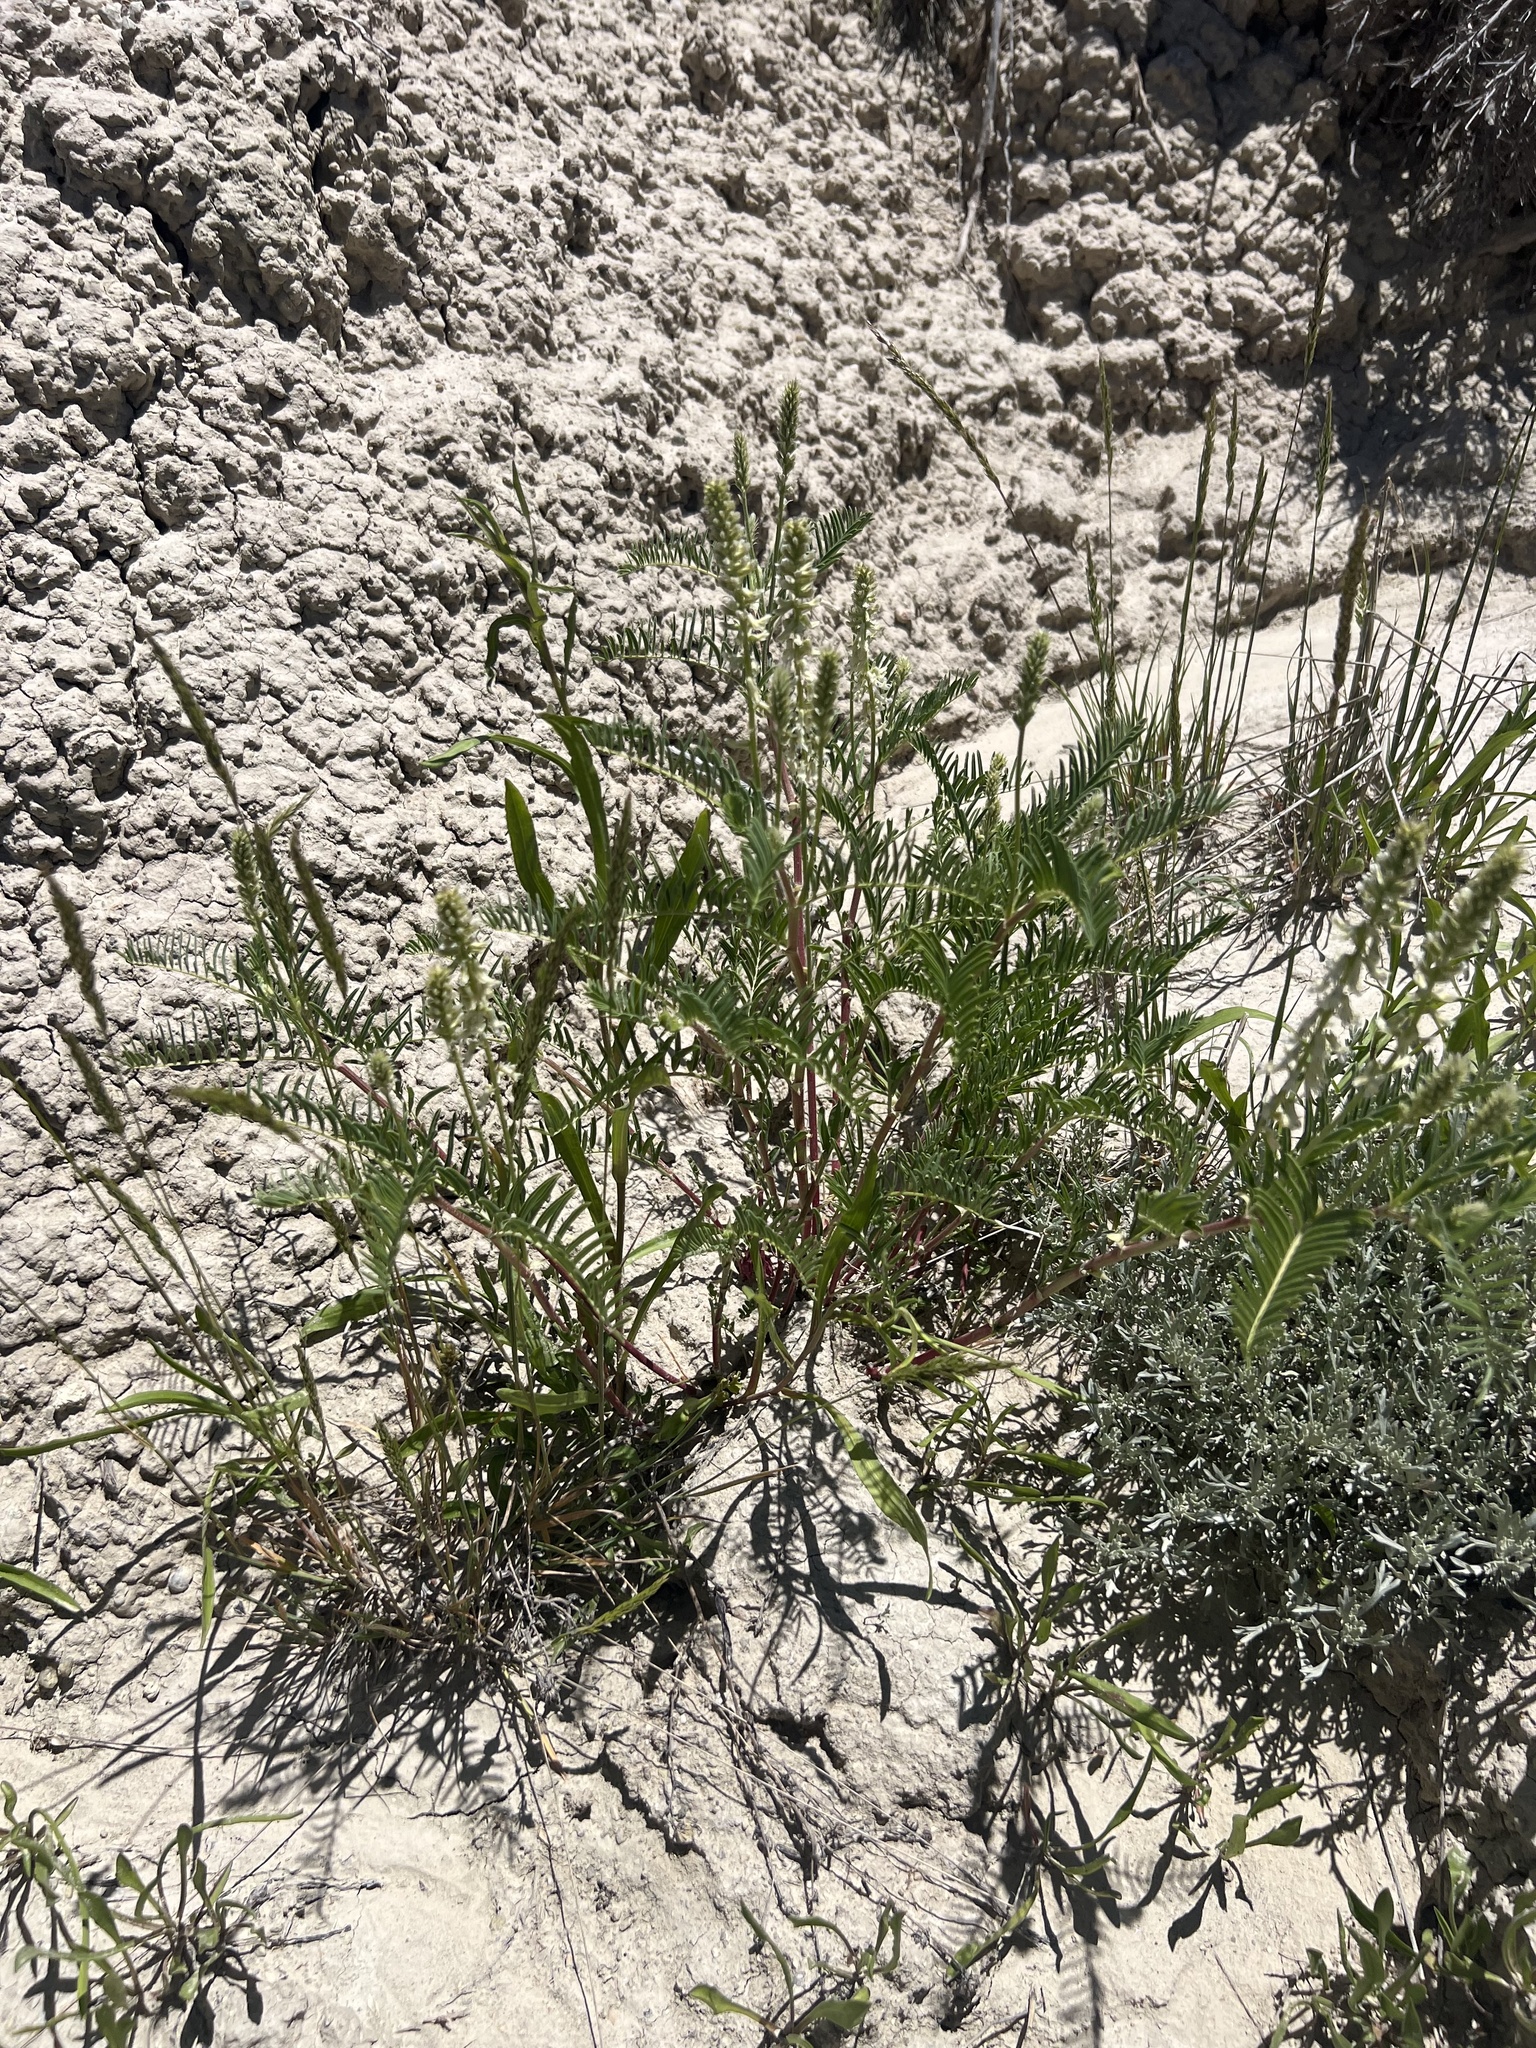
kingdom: Plantae
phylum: Tracheophyta
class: Magnoliopsida
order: Fabales
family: Fabaceae
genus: Astragalus
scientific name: Astragalus bisulcatus
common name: Two-groove milk-vetch
